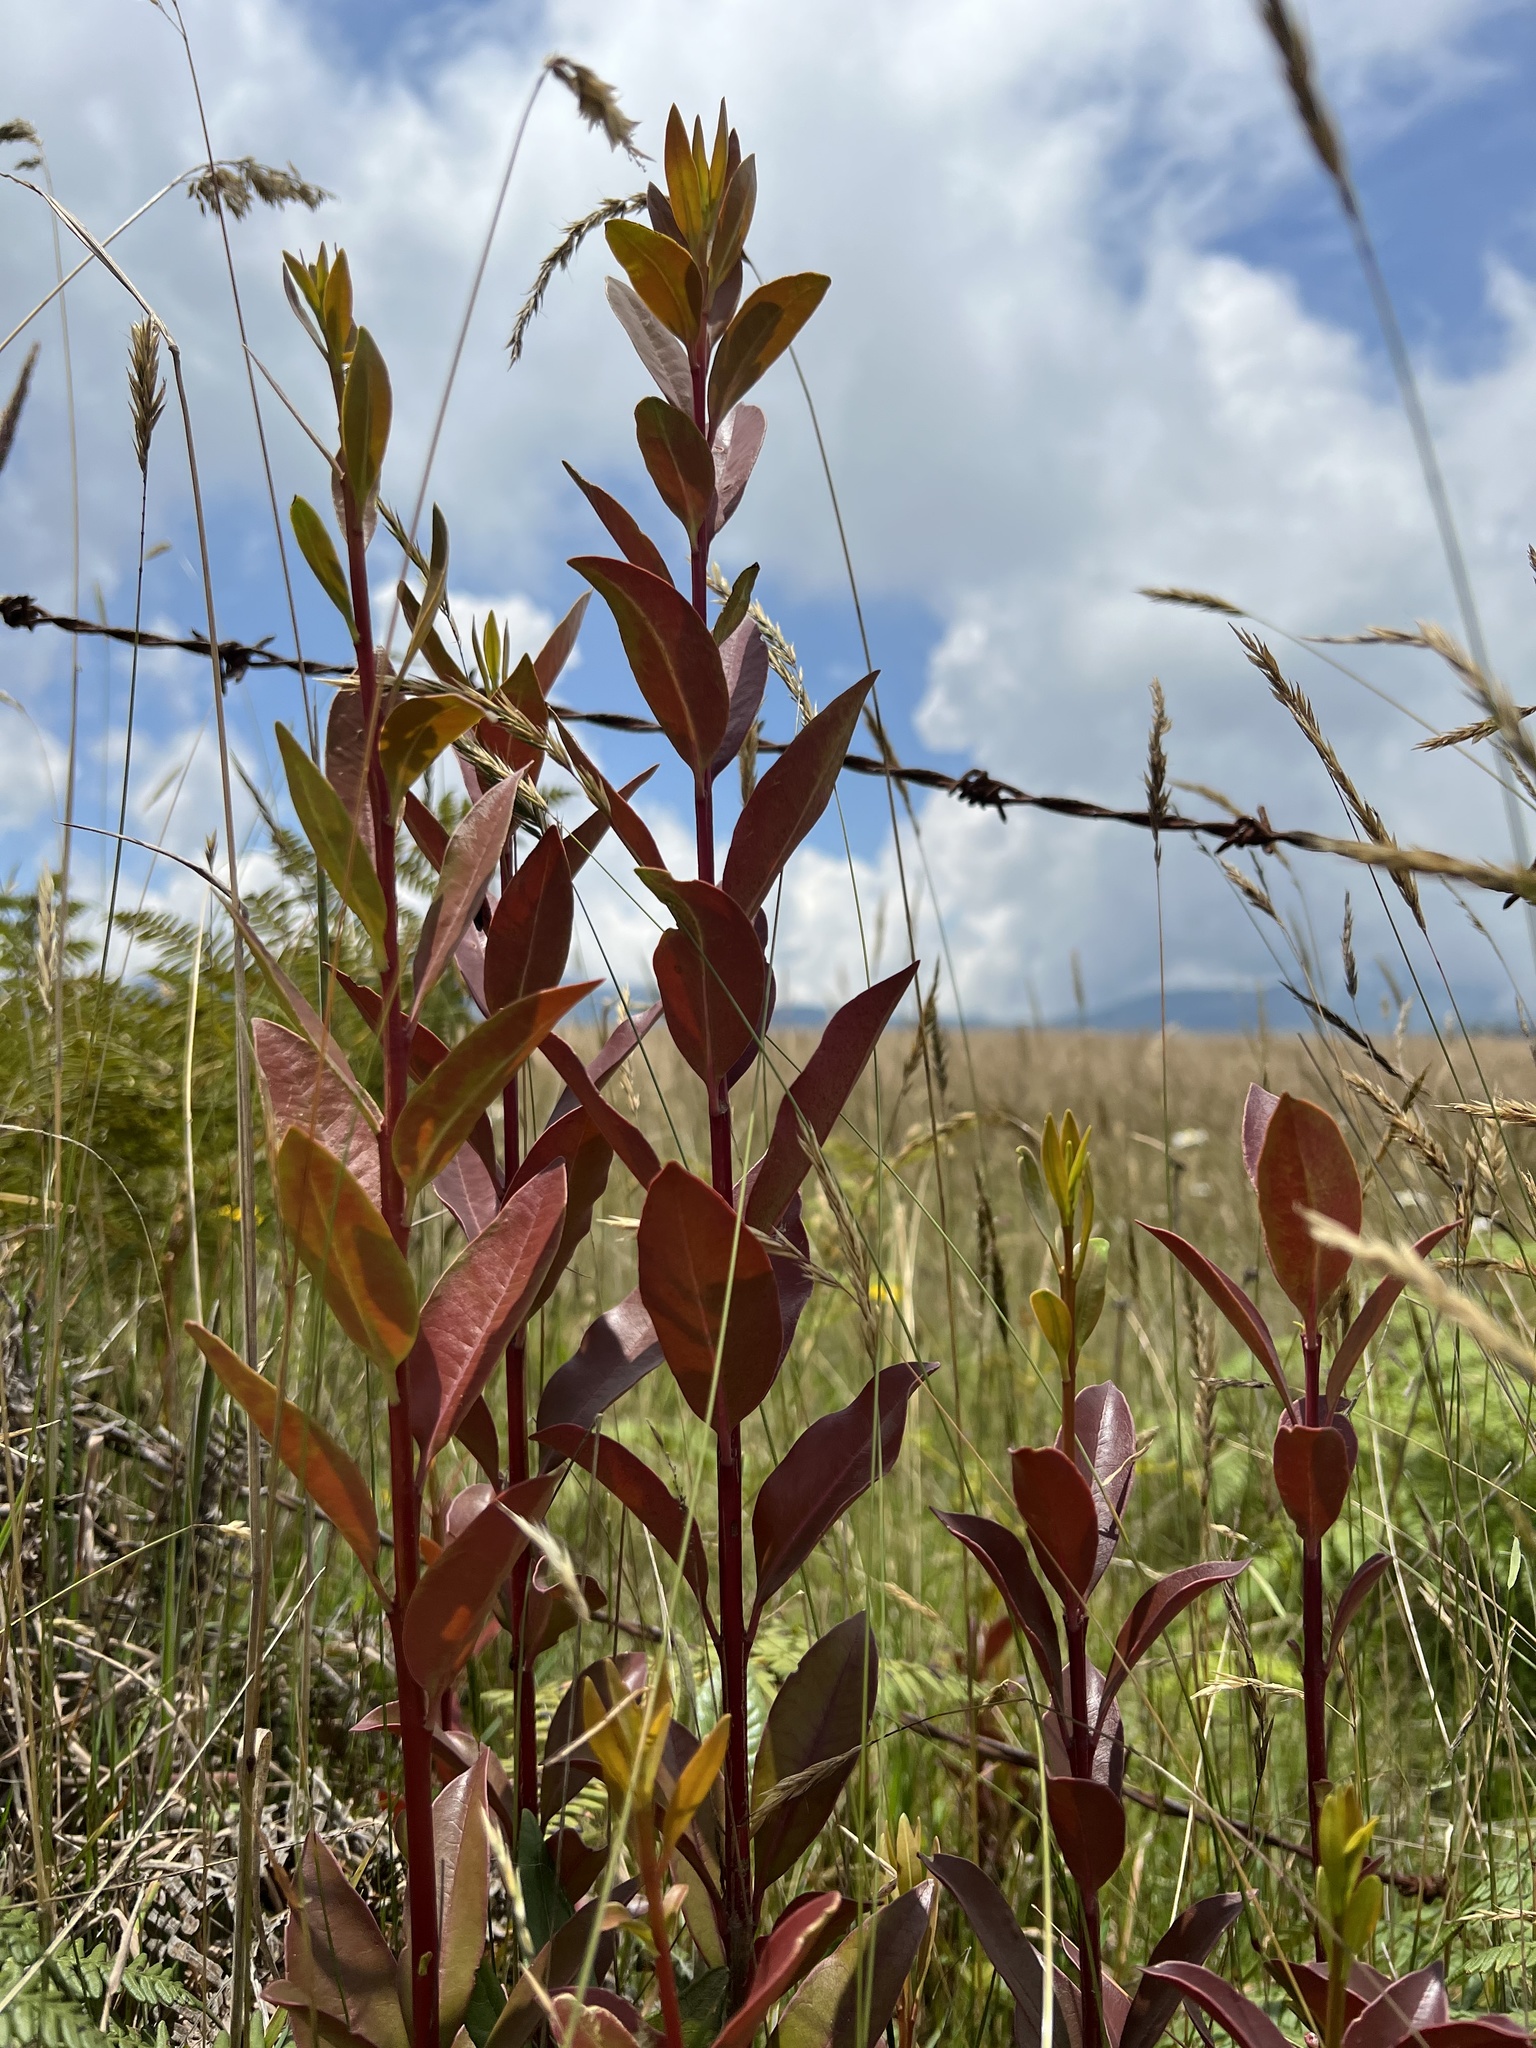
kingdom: Plantae
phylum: Tracheophyta
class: Magnoliopsida
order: Santalales
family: Loranthaceae
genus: Gaiadendron
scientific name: Gaiadendron punctatum
